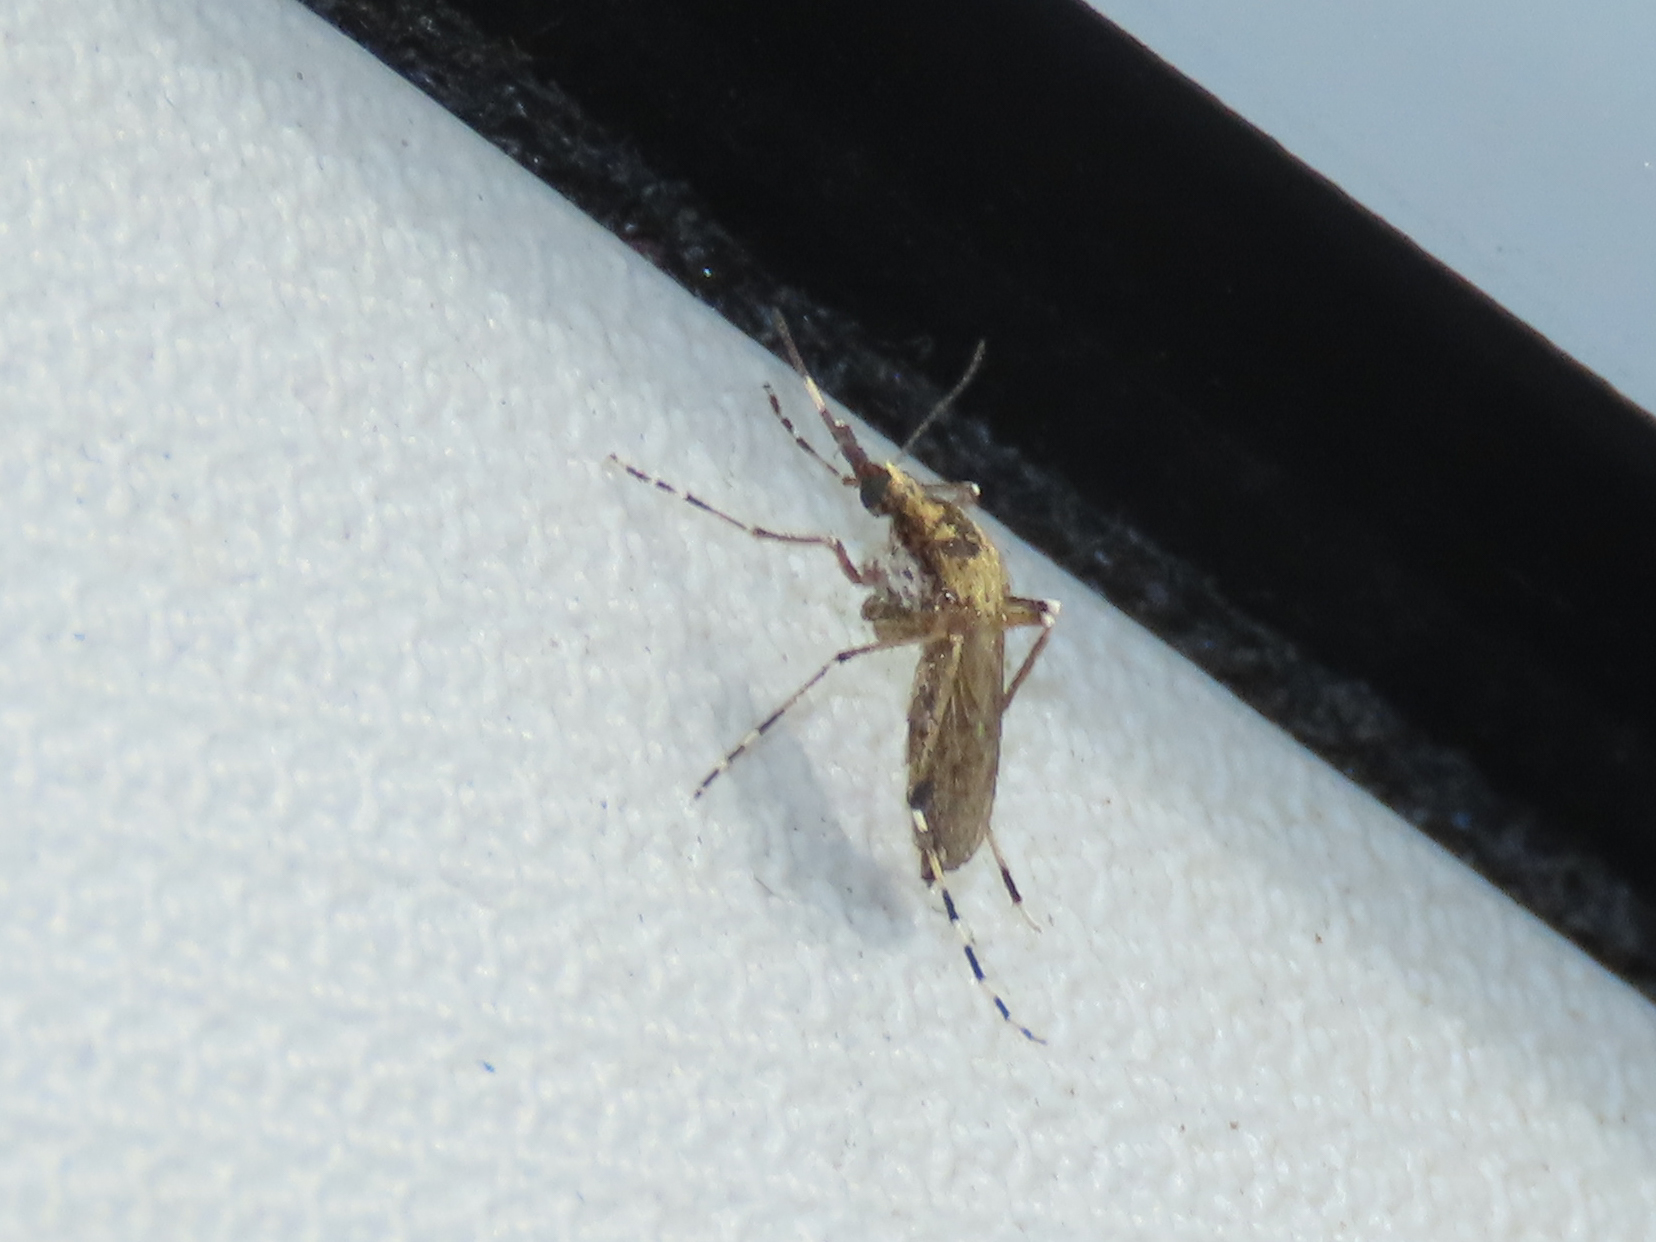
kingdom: Animalia
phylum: Arthropoda
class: Insecta
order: Diptera
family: Culicidae
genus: Aedes
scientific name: Aedes sollicitans
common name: Saltmarsh mosquito
